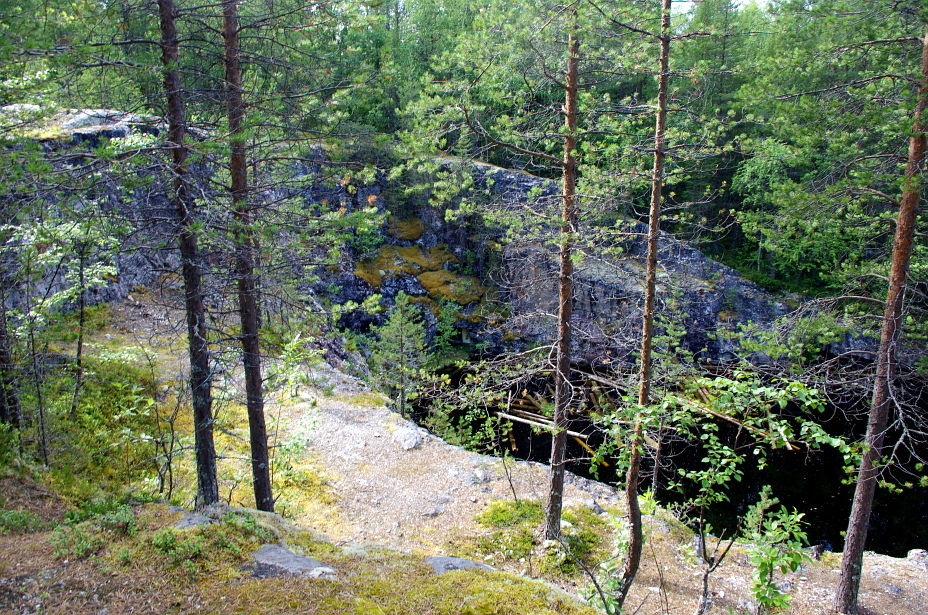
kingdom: Plantae
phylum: Tracheophyta
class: Pinopsida
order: Pinales
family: Pinaceae
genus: Pinus
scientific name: Pinus sylvestris
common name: Scots pine
